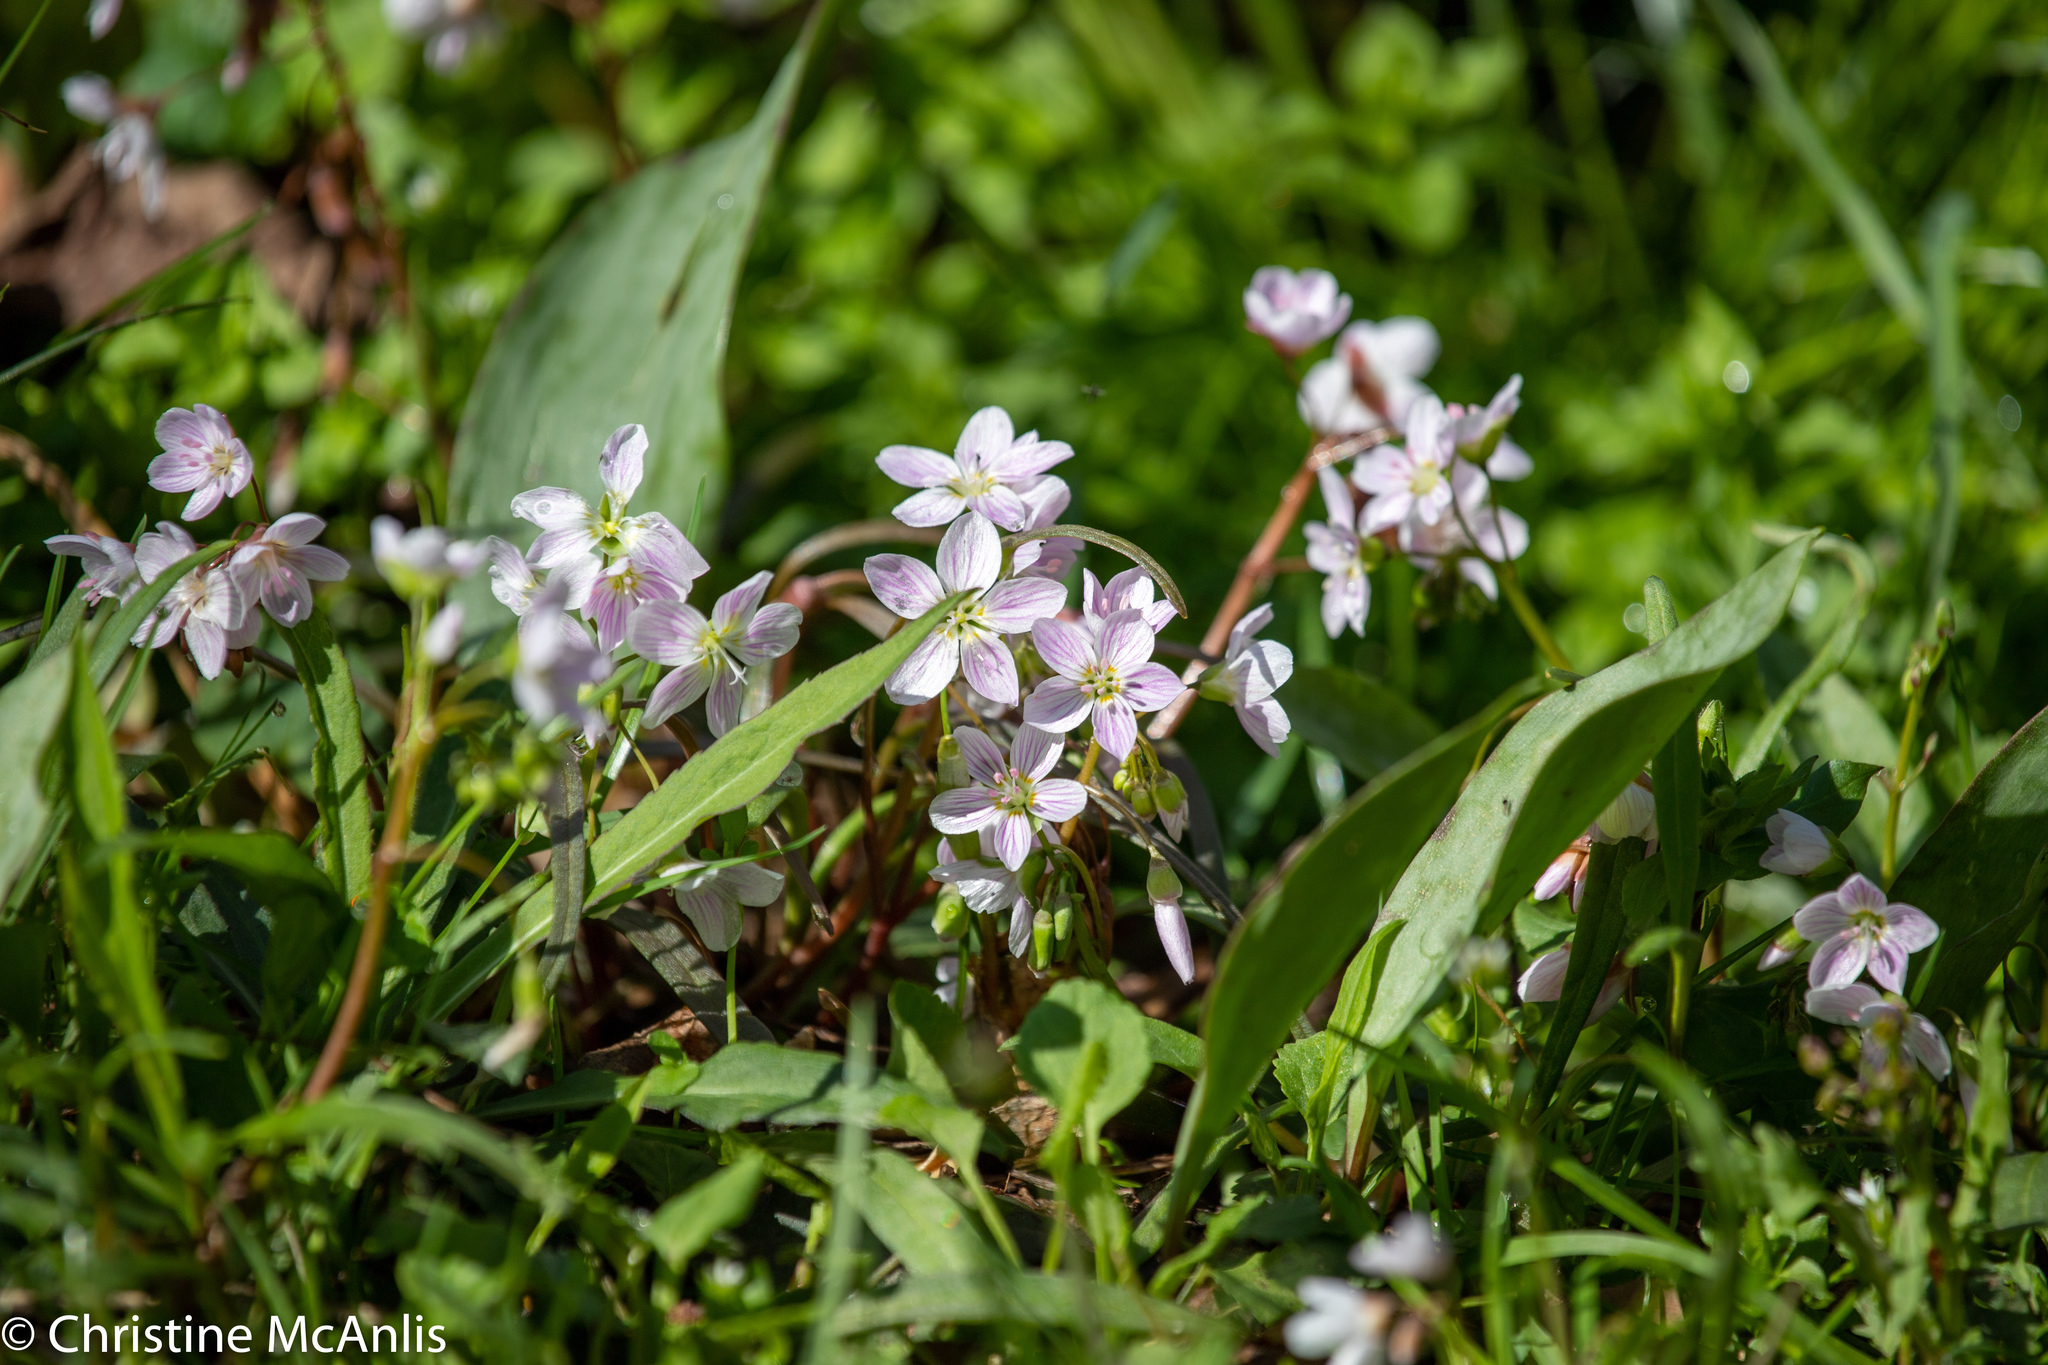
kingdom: Plantae
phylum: Tracheophyta
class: Magnoliopsida
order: Caryophyllales
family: Montiaceae
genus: Claytonia
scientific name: Claytonia virginica
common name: Virginia springbeauty
